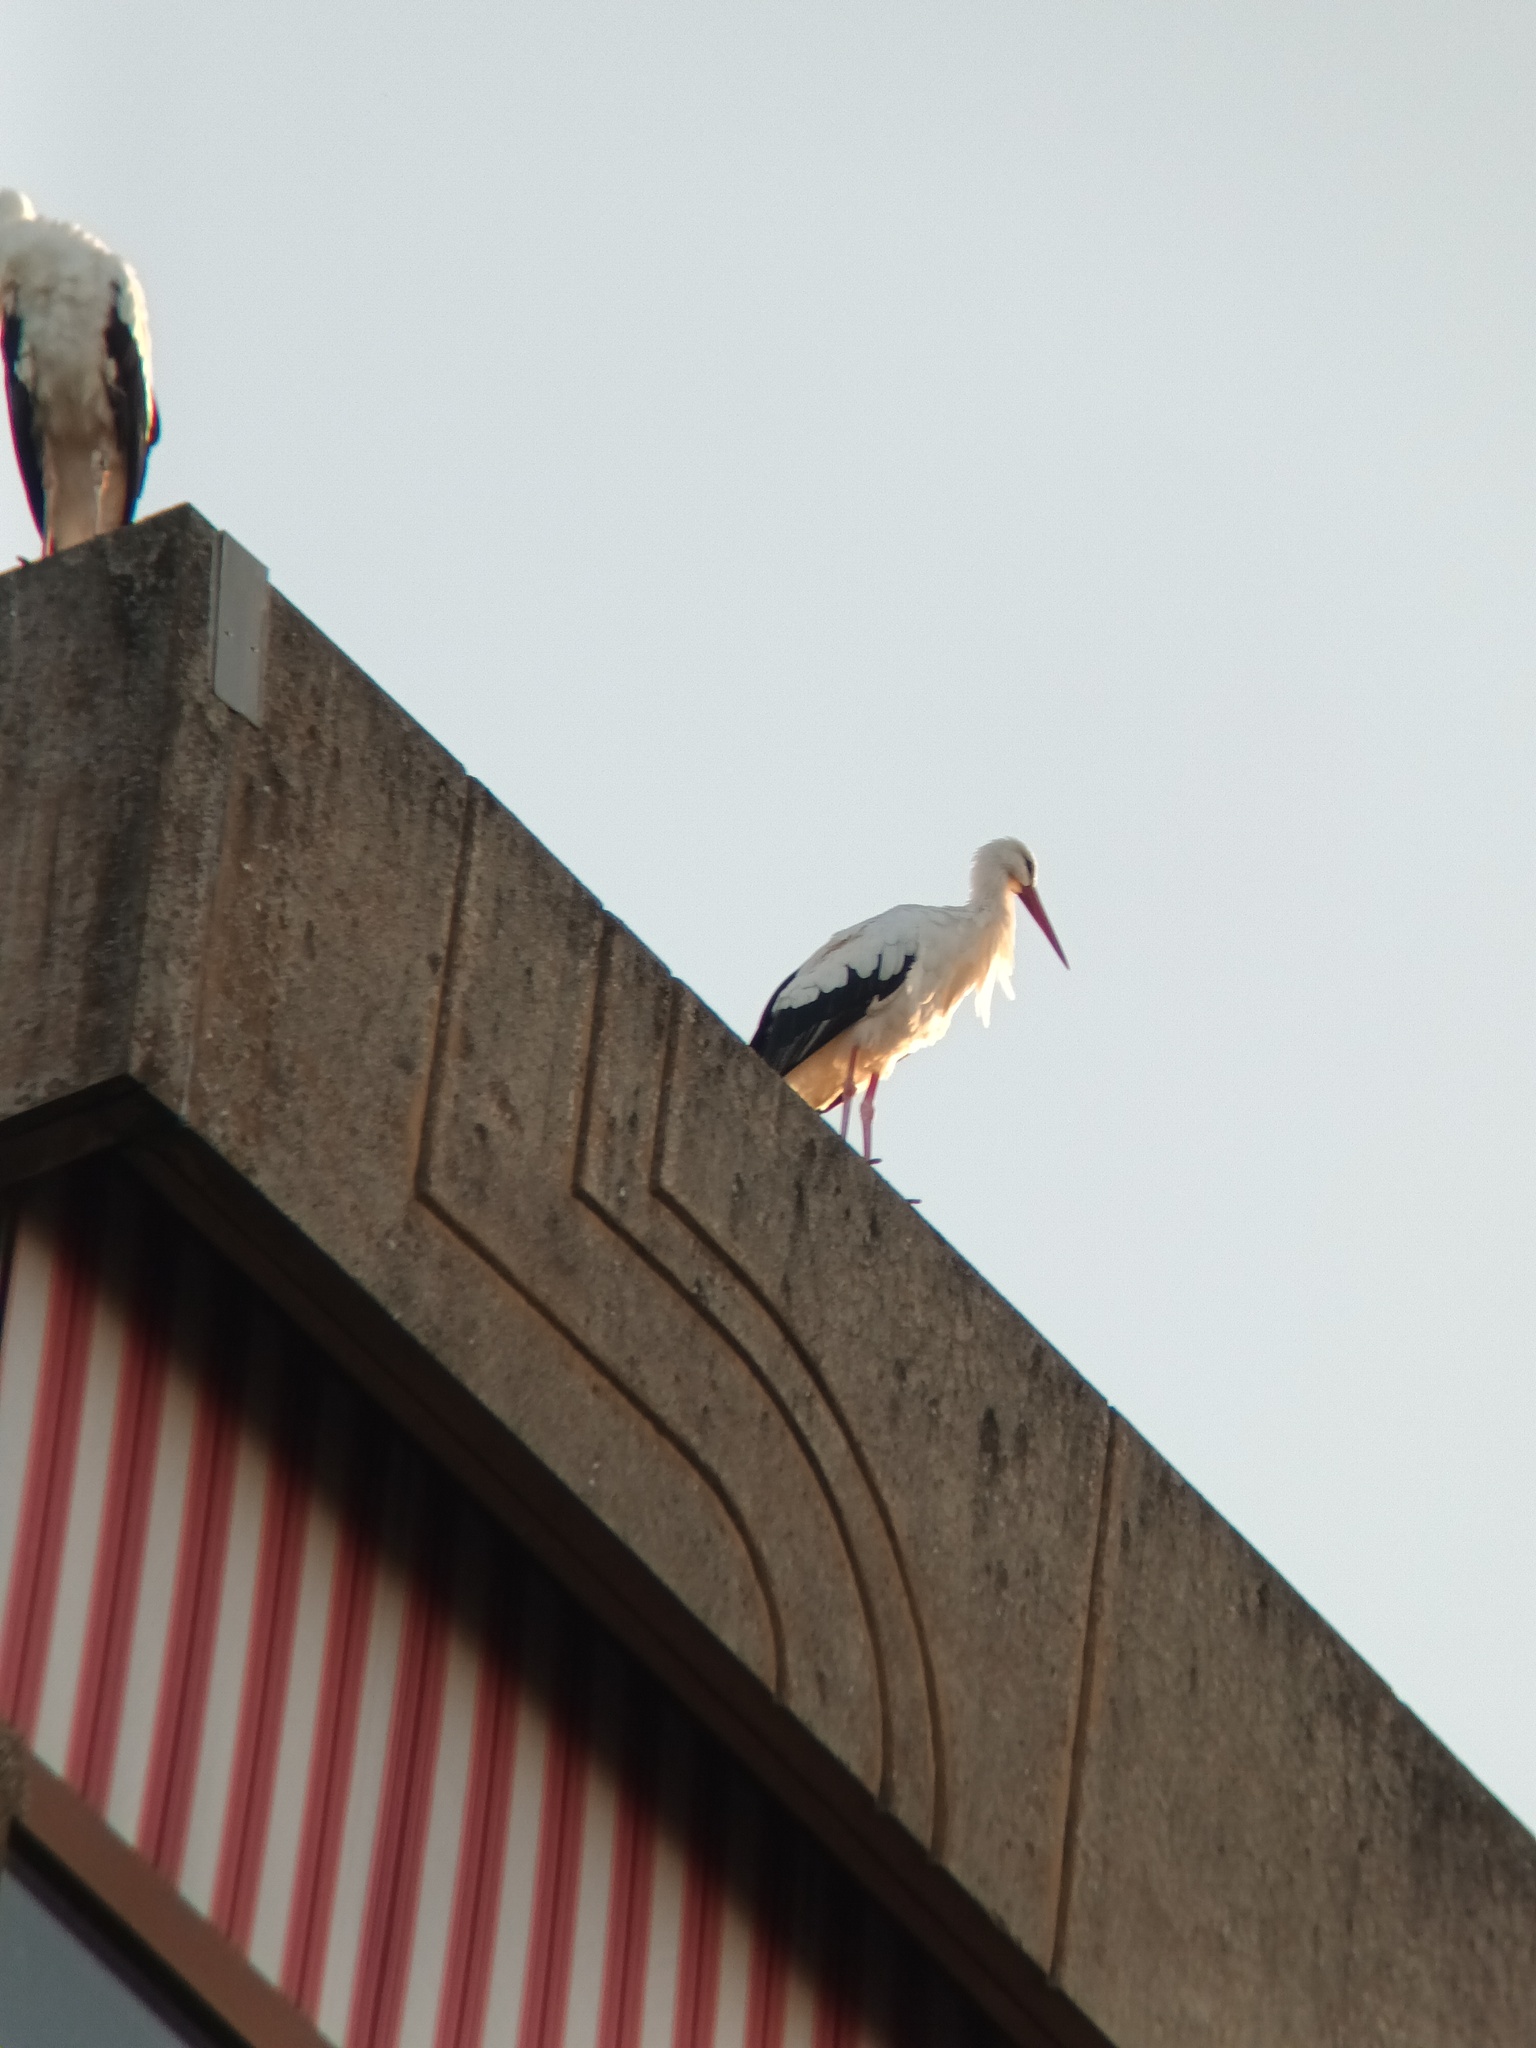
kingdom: Animalia
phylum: Chordata
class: Aves
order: Ciconiiformes
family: Ciconiidae
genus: Ciconia
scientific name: Ciconia ciconia
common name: White stork
